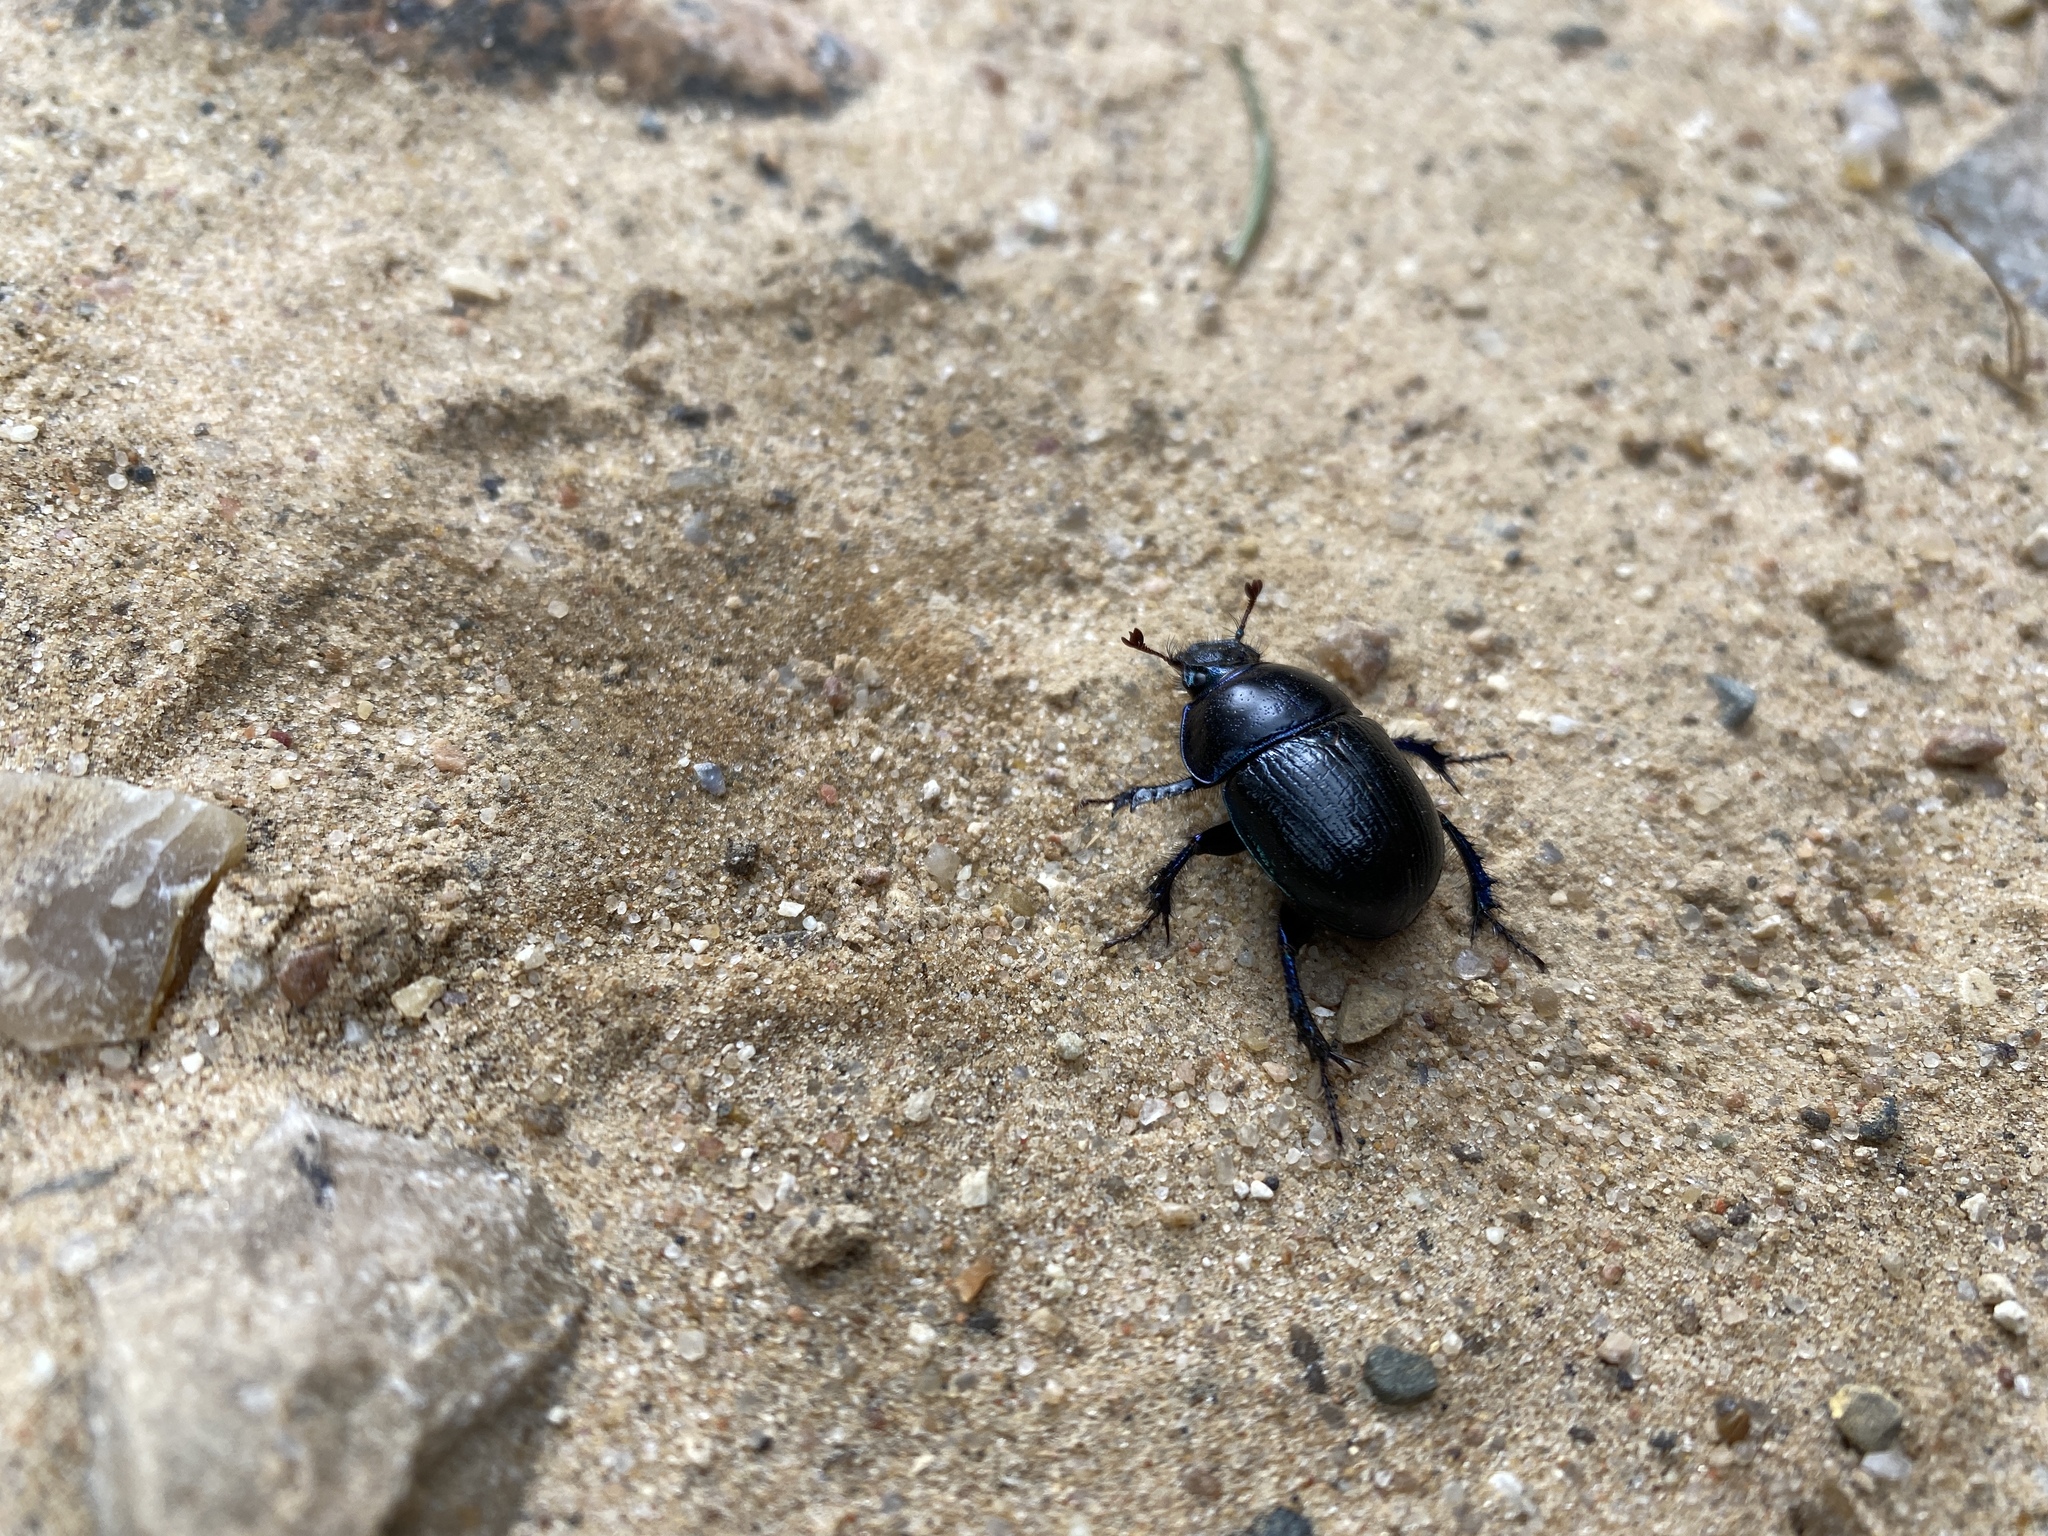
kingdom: Animalia
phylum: Arthropoda
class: Insecta
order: Coleoptera
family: Geotrupidae
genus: Anoplotrupes
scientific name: Anoplotrupes stercorosus
